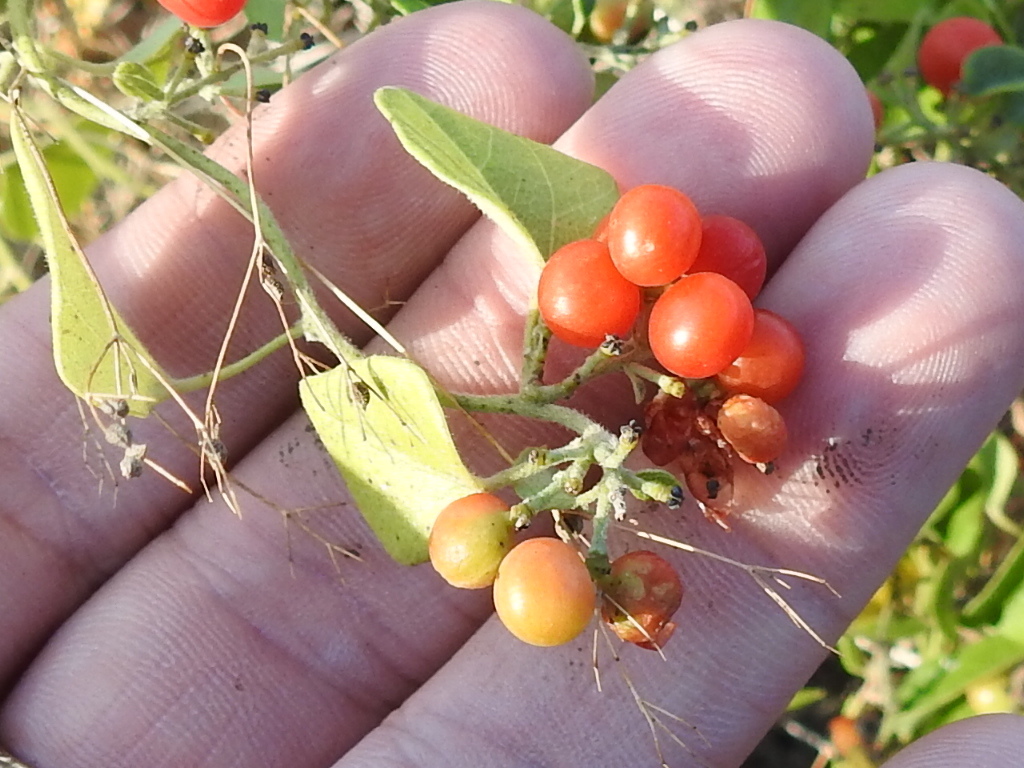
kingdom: Plantae
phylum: Tracheophyta
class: Magnoliopsida
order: Ranunculales
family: Menispermaceae
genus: Cocculus
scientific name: Cocculus carolinus
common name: Carolina moonseed
